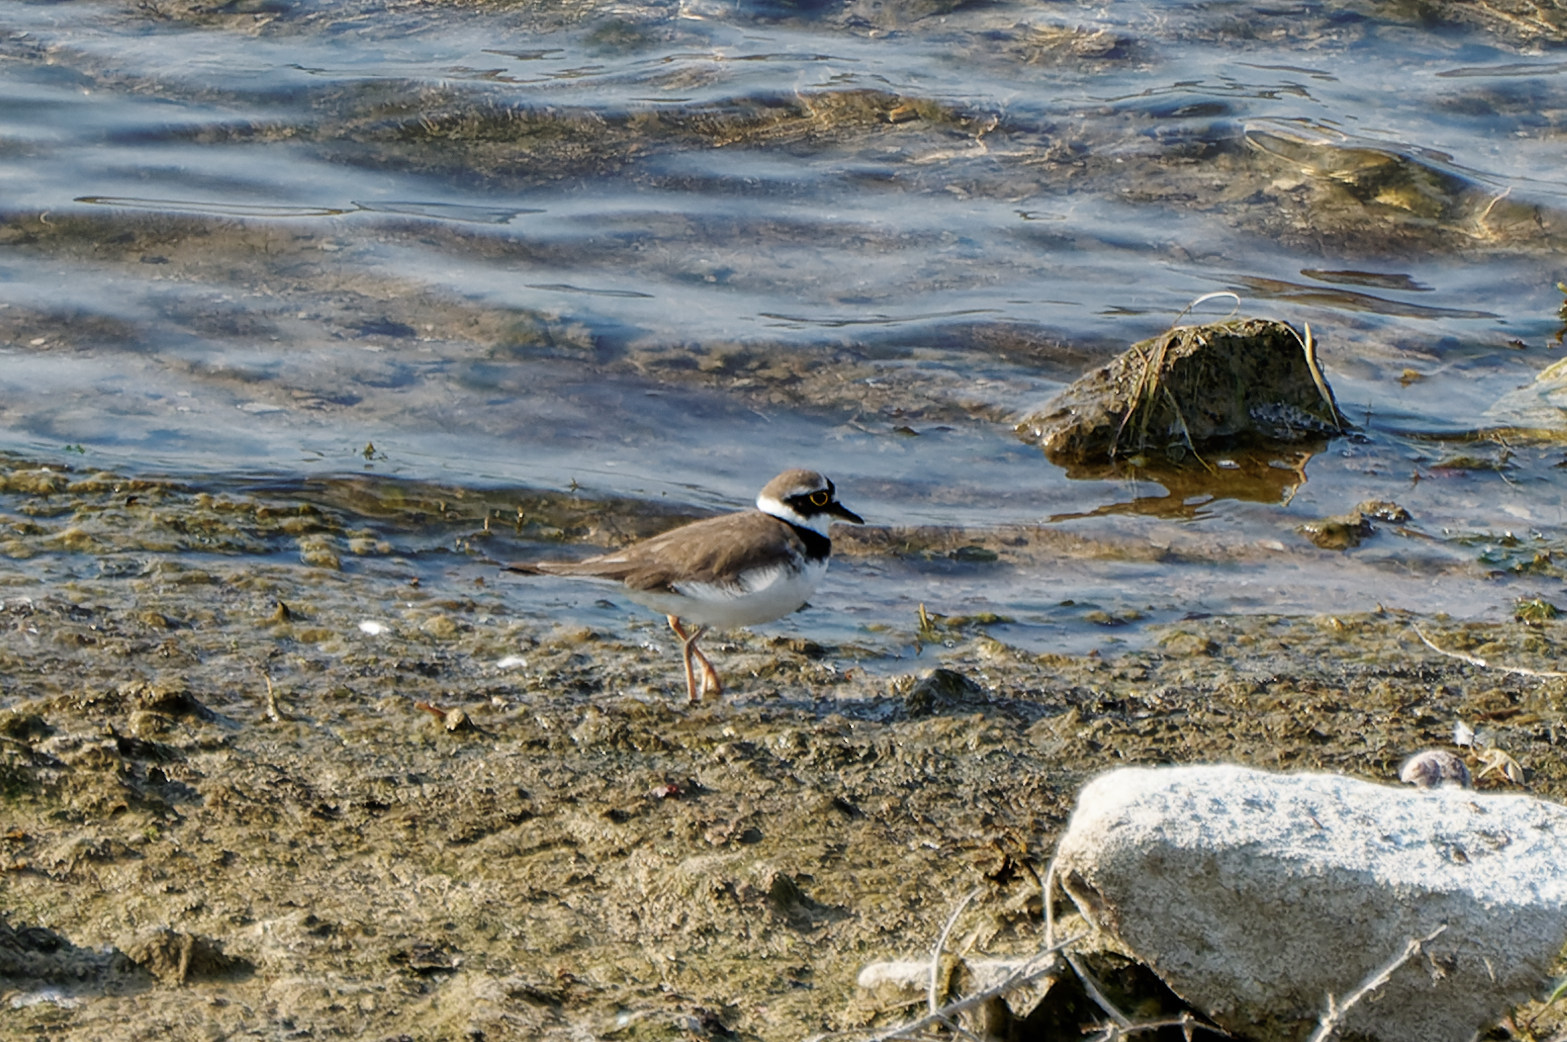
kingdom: Animalia
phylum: Chordata
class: Aves
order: Charadriiformes
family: Charadriidae
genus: Charadrius
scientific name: Charadrius dubius
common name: Little ringed plover
